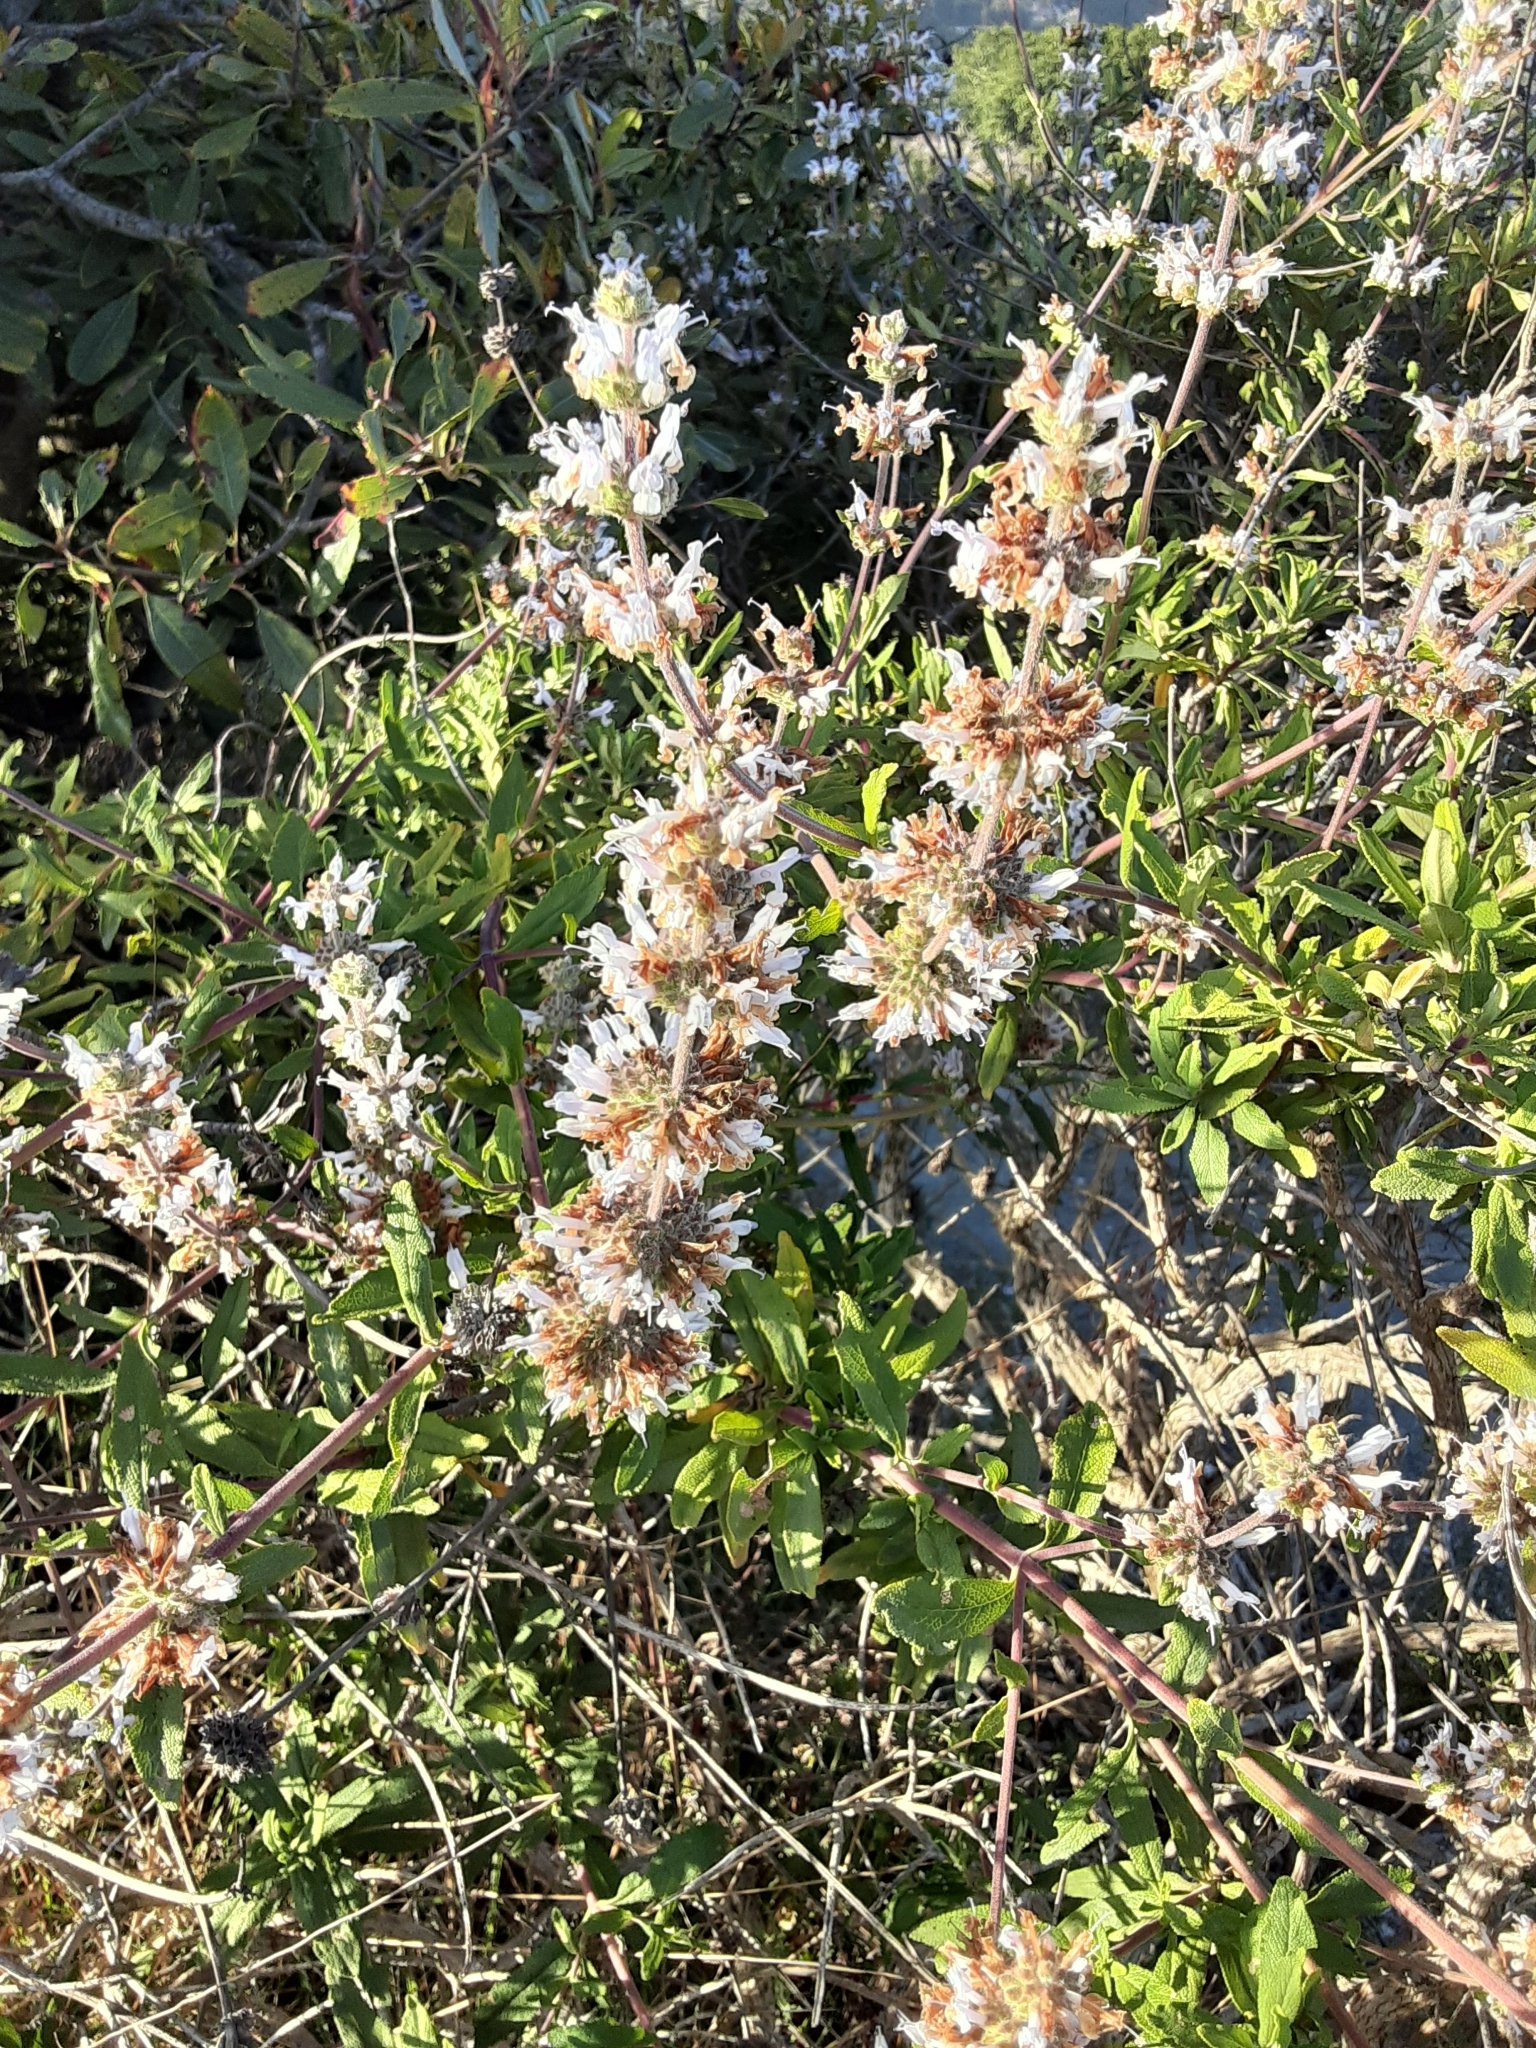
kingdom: Plantae
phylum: Tracheophyta
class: Magnoliopsida
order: Lamiales
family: Lamiaceae
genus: Salvia
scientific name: Salvia mellifera
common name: Black sage
